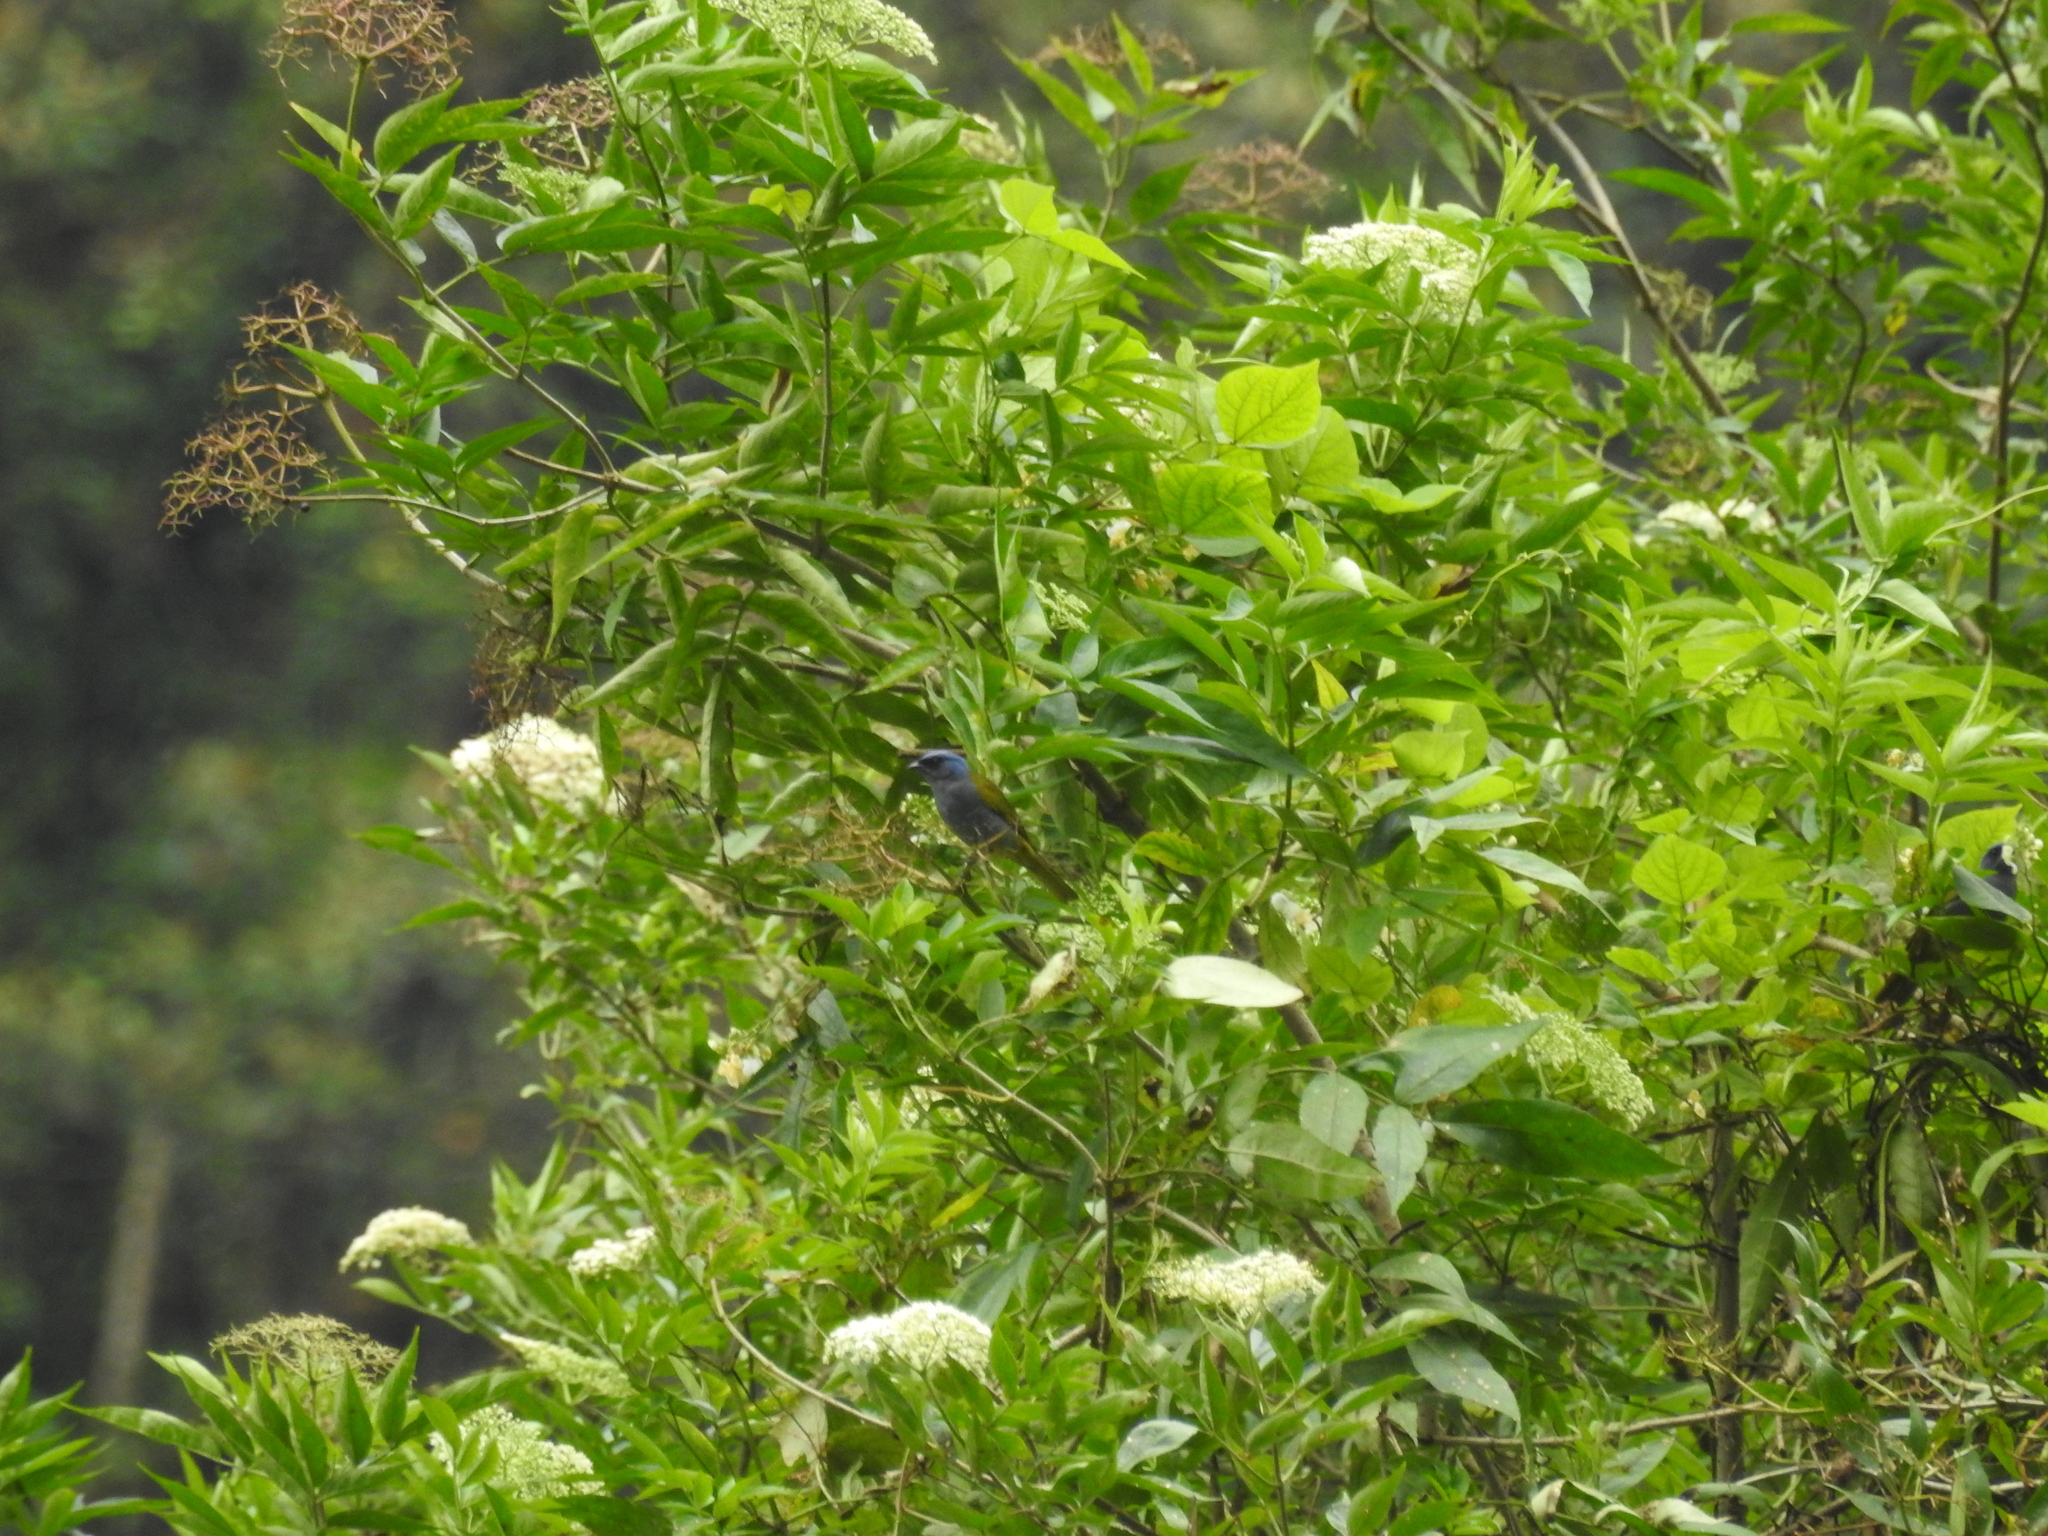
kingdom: Animalia
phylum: Chordata
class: Aves
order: Passeriformes
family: Thraupidae
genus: Sporathraupis
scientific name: Sporathraupis cyanocephala
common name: Blue-capped tanager
